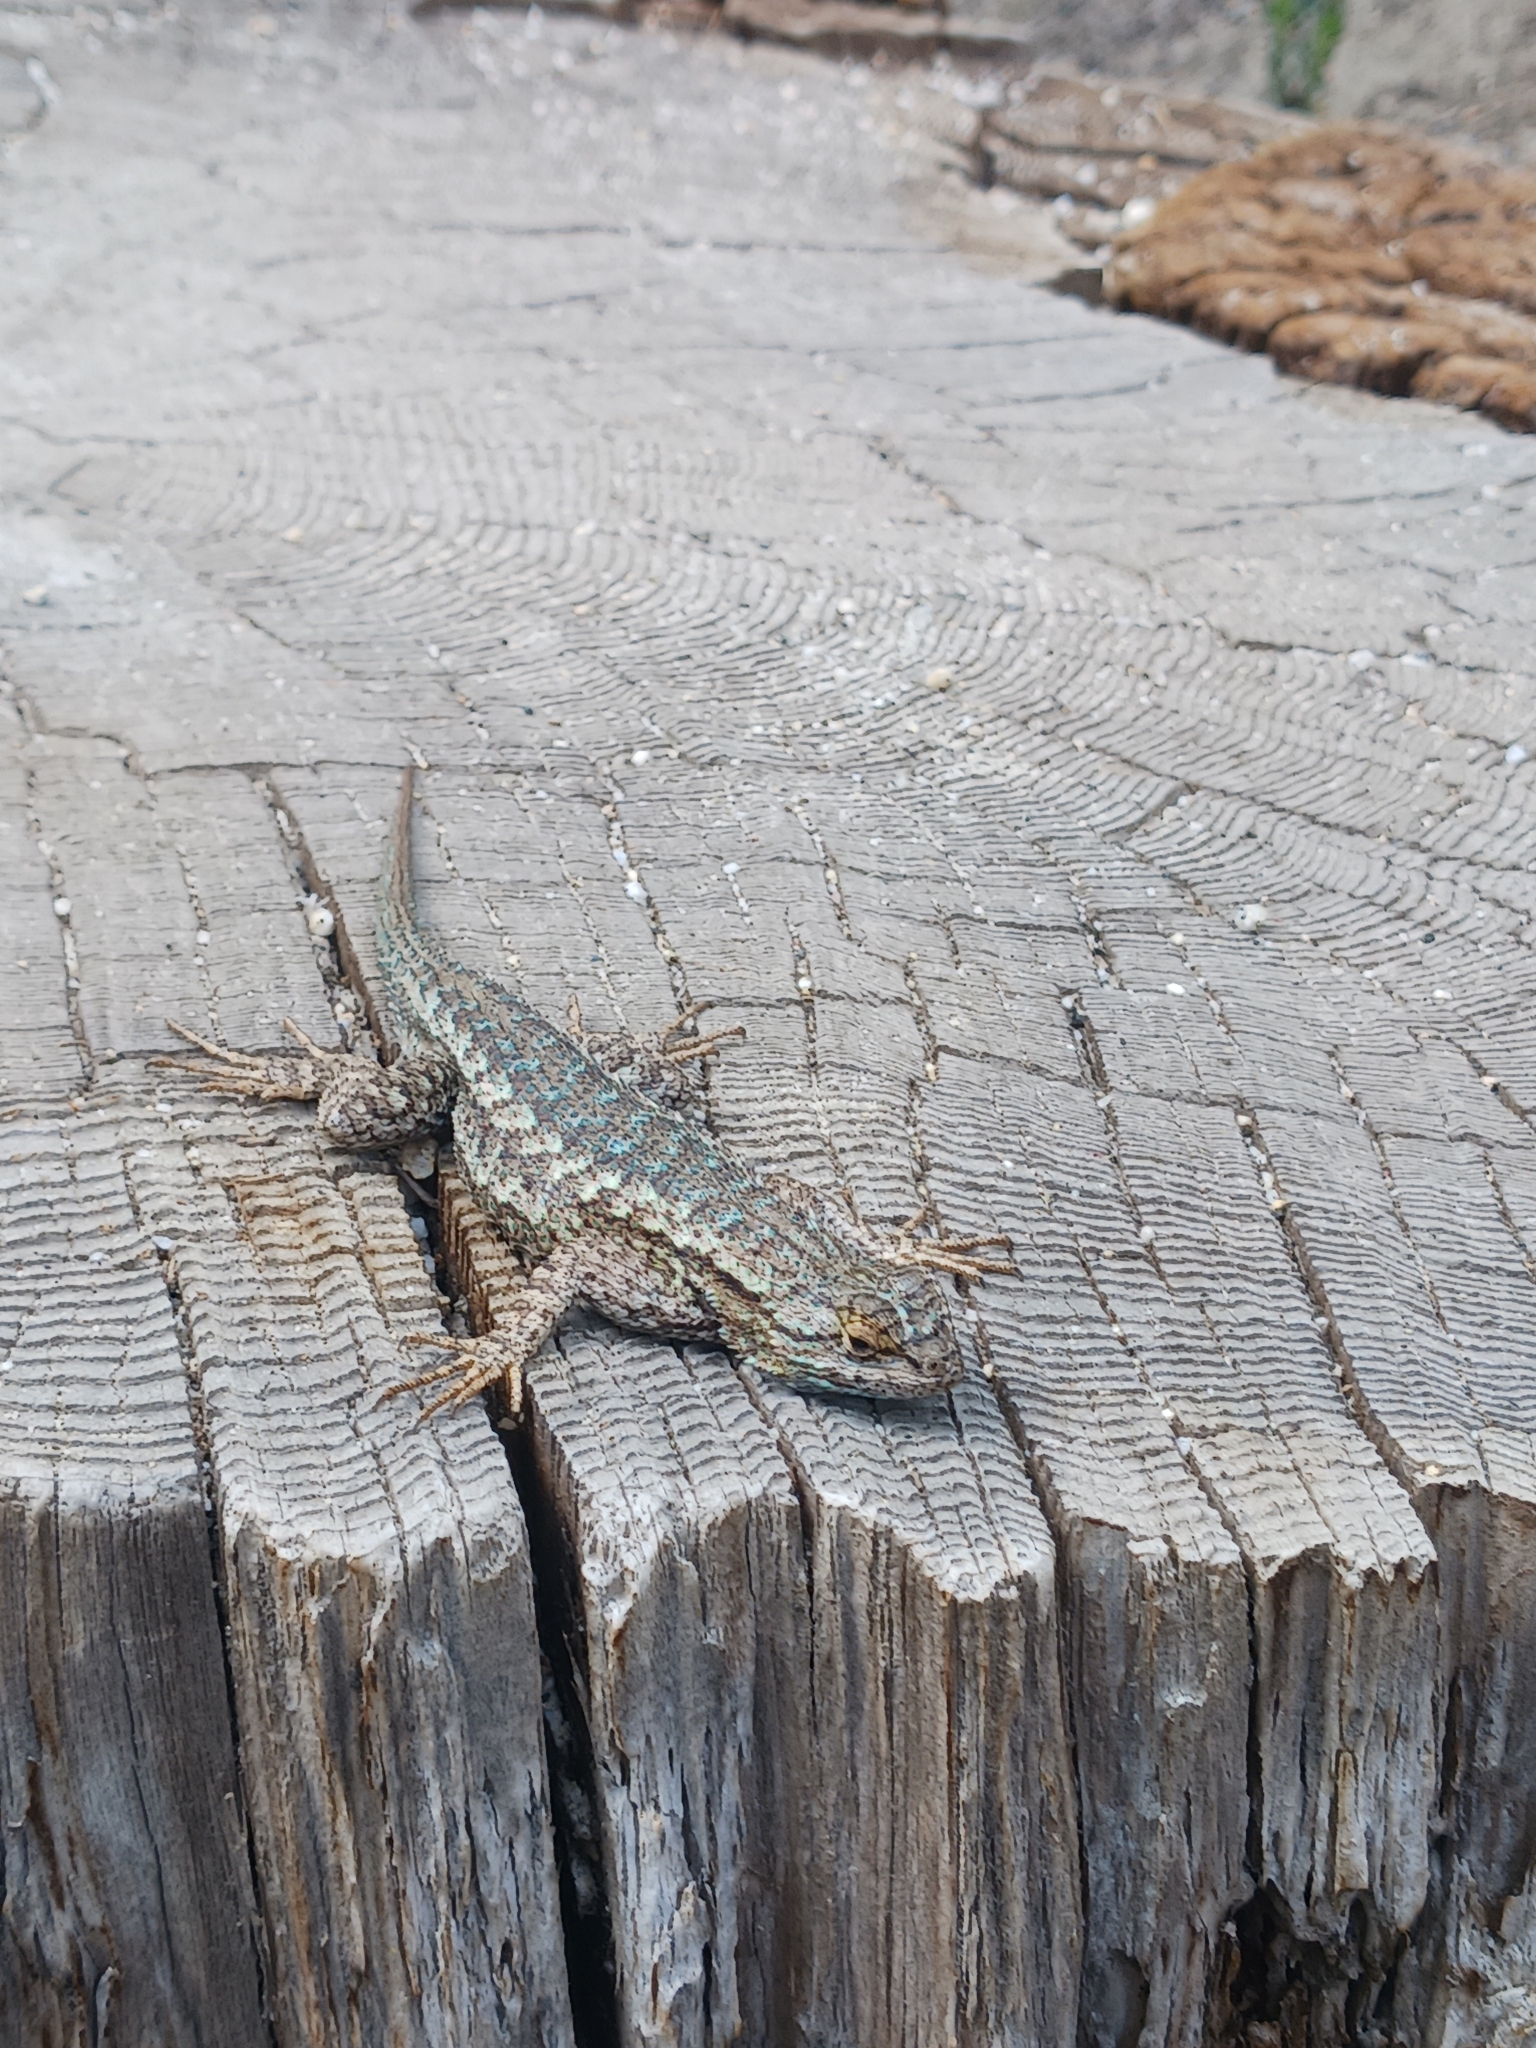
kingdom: Animalia
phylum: Chordata
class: Squamata
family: Phrynosomatidae
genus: Sceloporus
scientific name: Sceloporus occidentalis
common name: Western fence lizard
